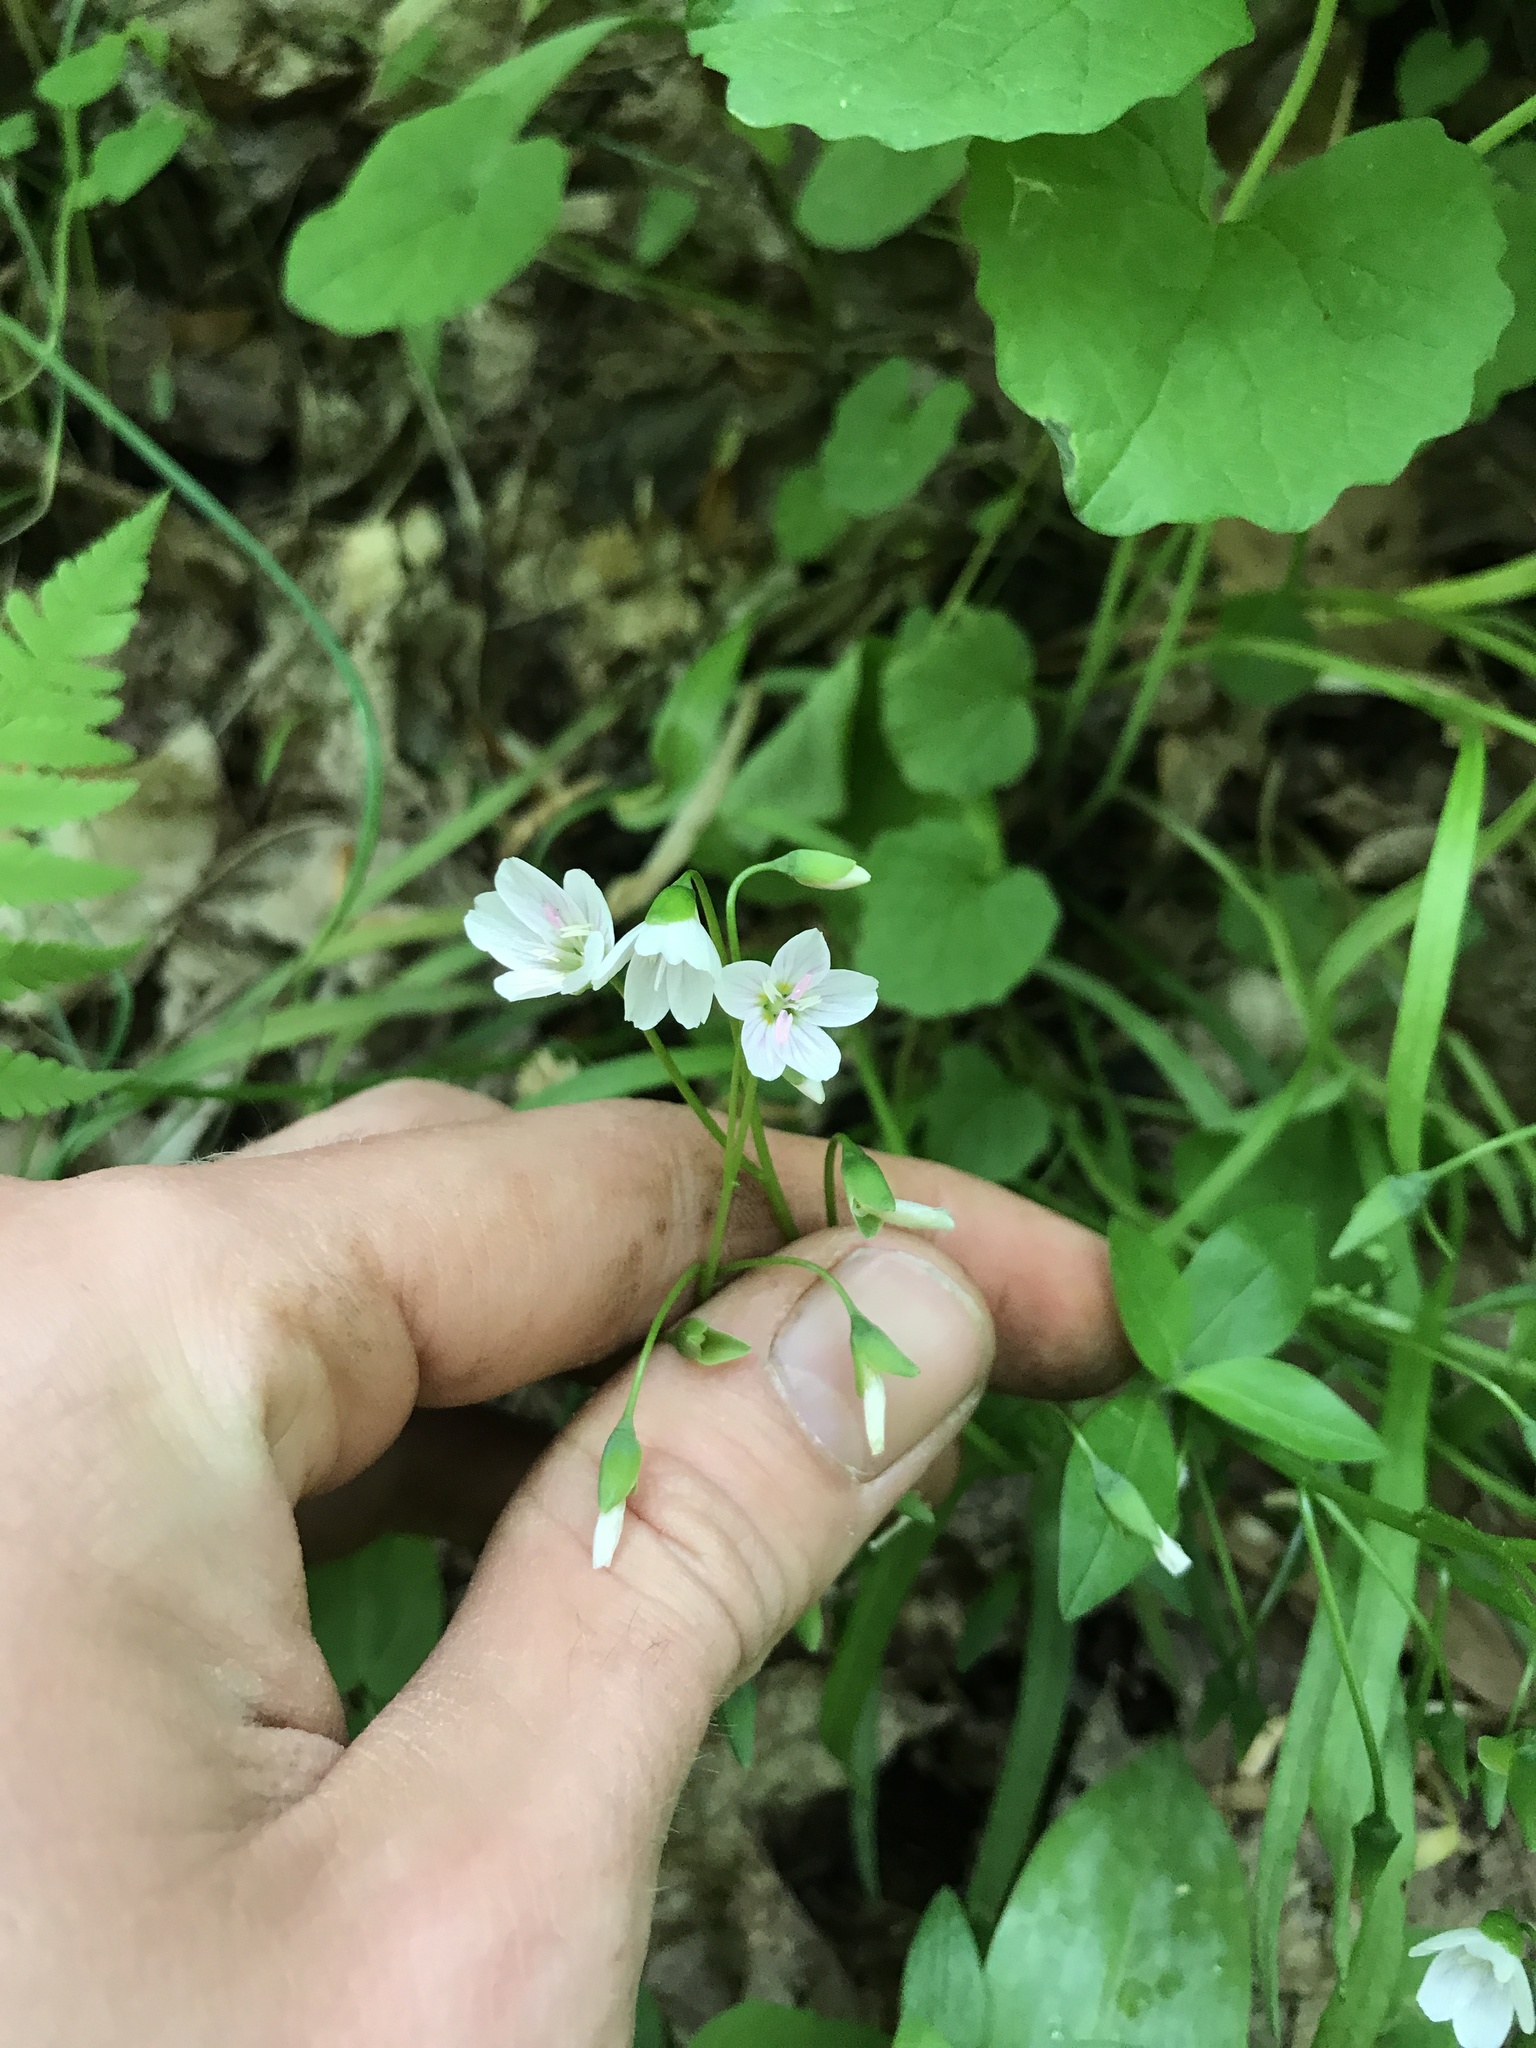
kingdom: Plantae
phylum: Tracheophyta
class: Magnoliopsida
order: Caryophyllales
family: Montiaceae
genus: Claytonia
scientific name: Claytonia virginica
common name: Virginia springbeauty
